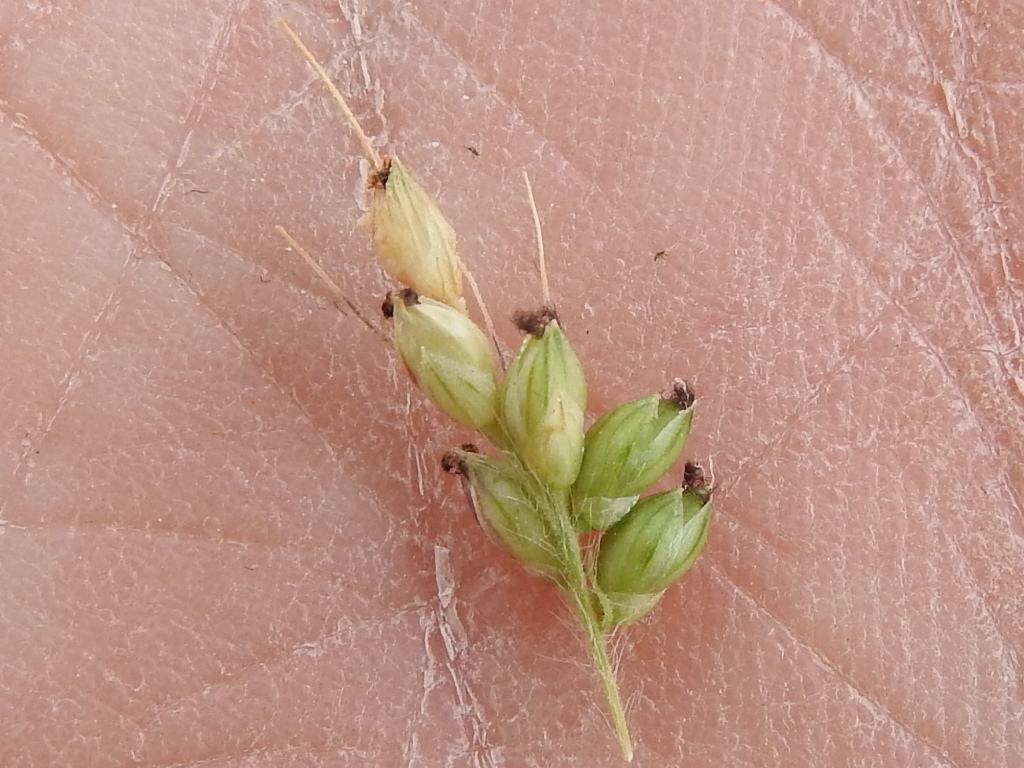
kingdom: Plantae
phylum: Tracheophyta
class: Liliopsida
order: Poales
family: Poaceae
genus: Setaria
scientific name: Setaria leucopila
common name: Plains bristle grass
